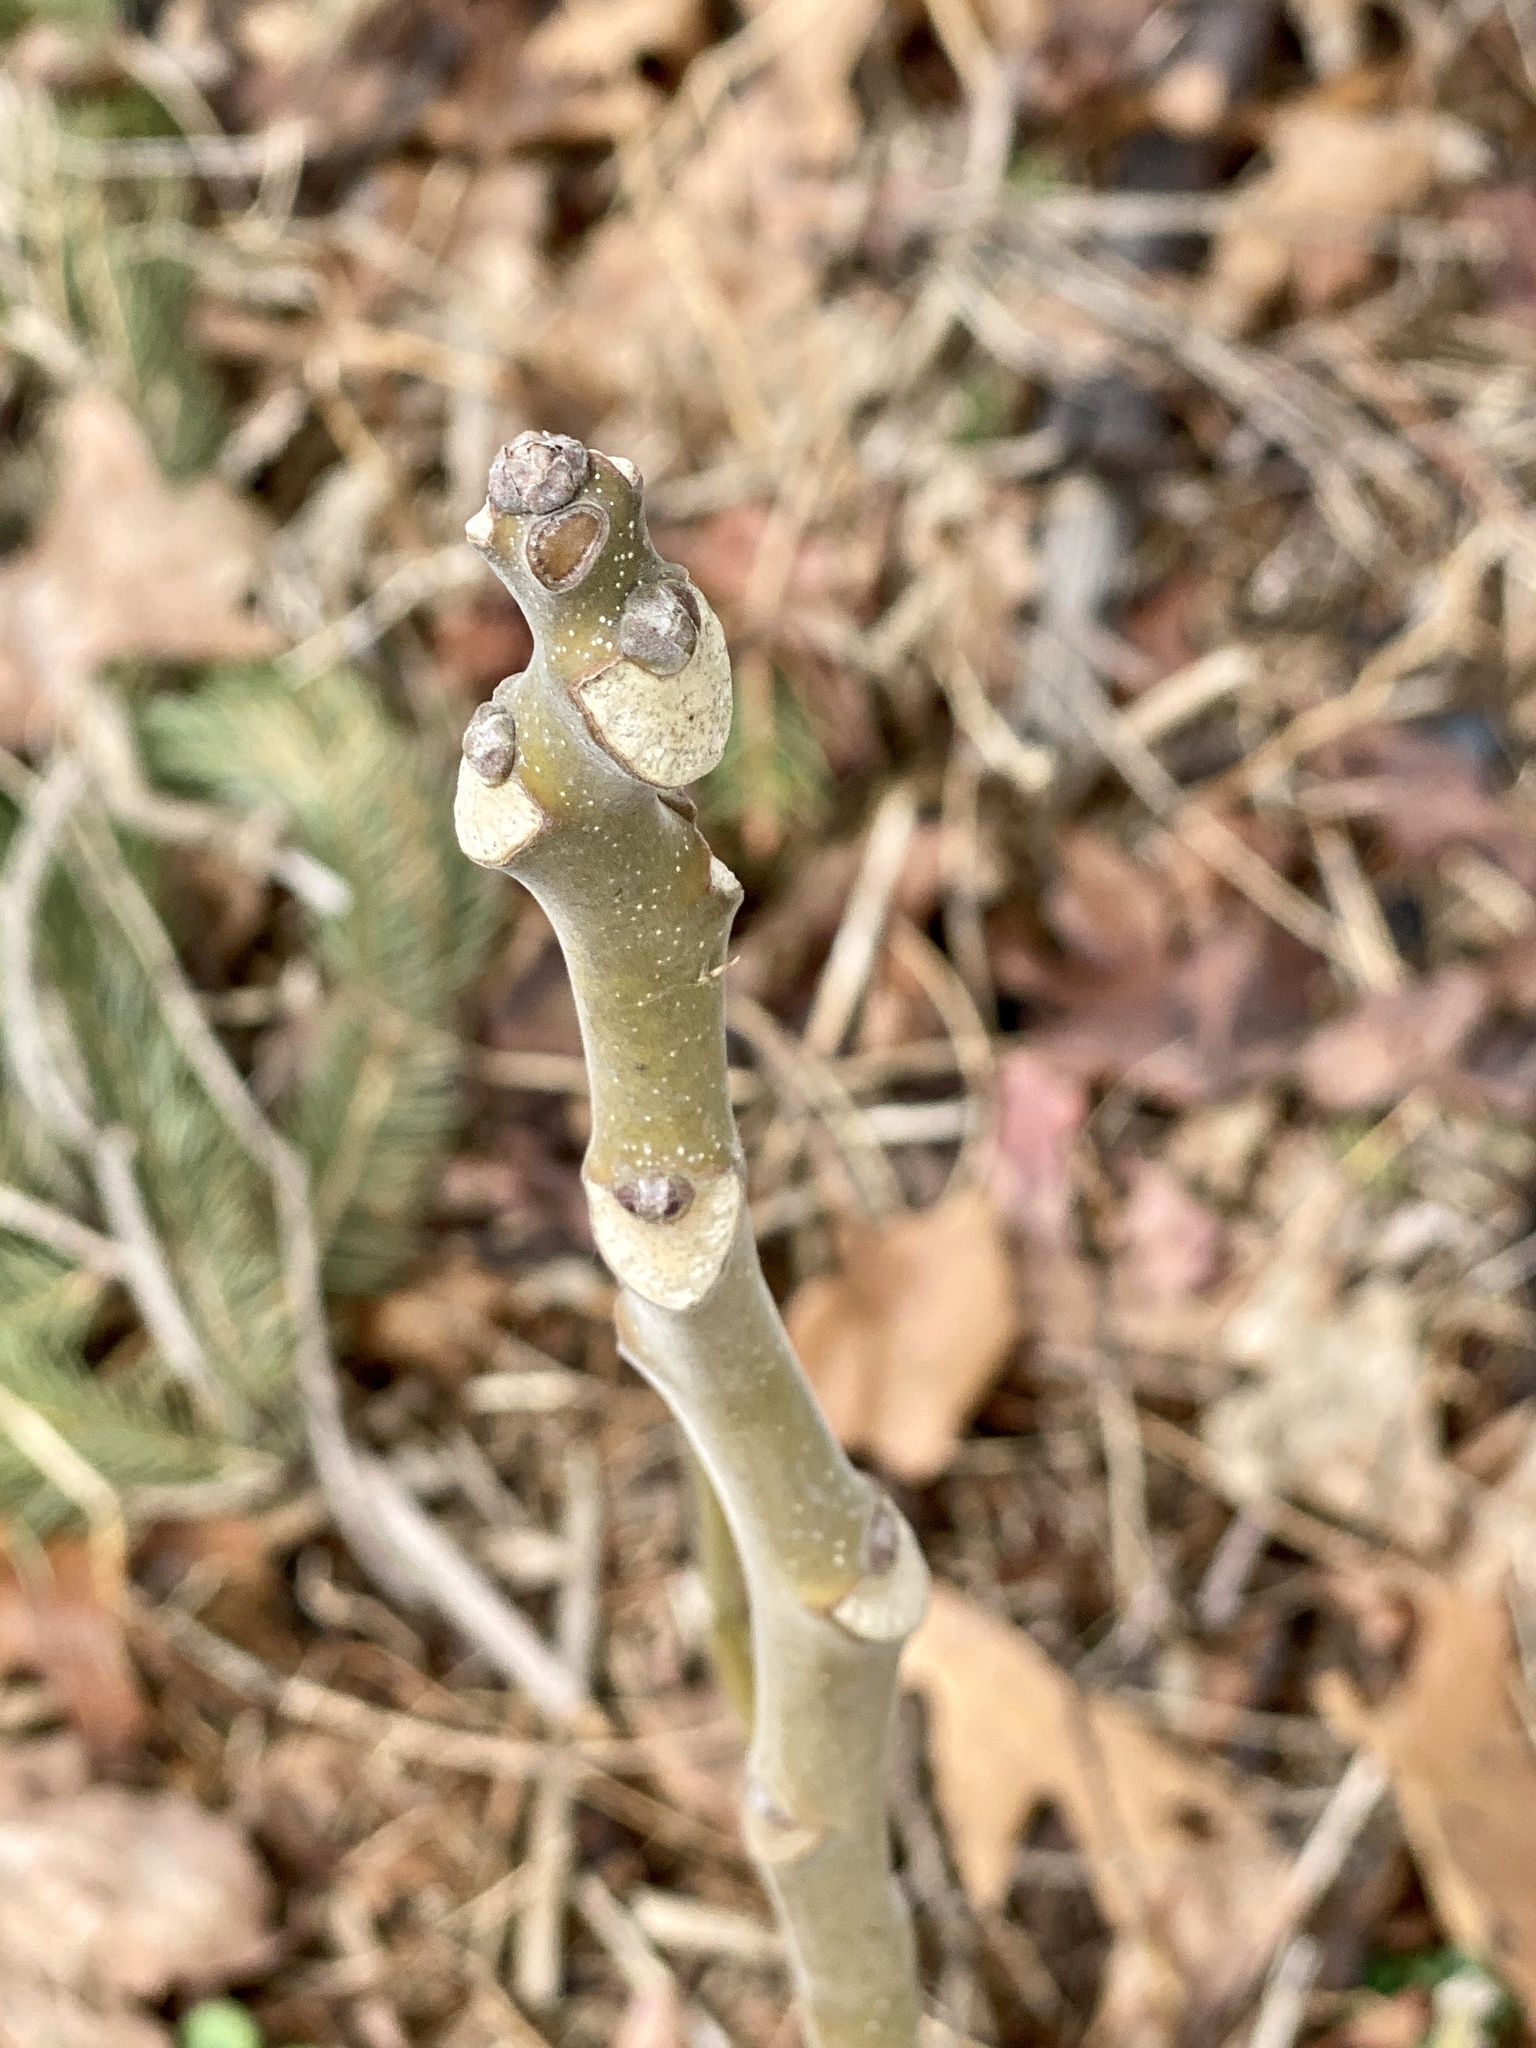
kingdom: Plantae
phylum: Tracheophyta
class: Magnoliopsida
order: Sapindales
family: Simaroubaceae
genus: Ailanthus
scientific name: Ailanthus altissima
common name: Tree-of-heaven
